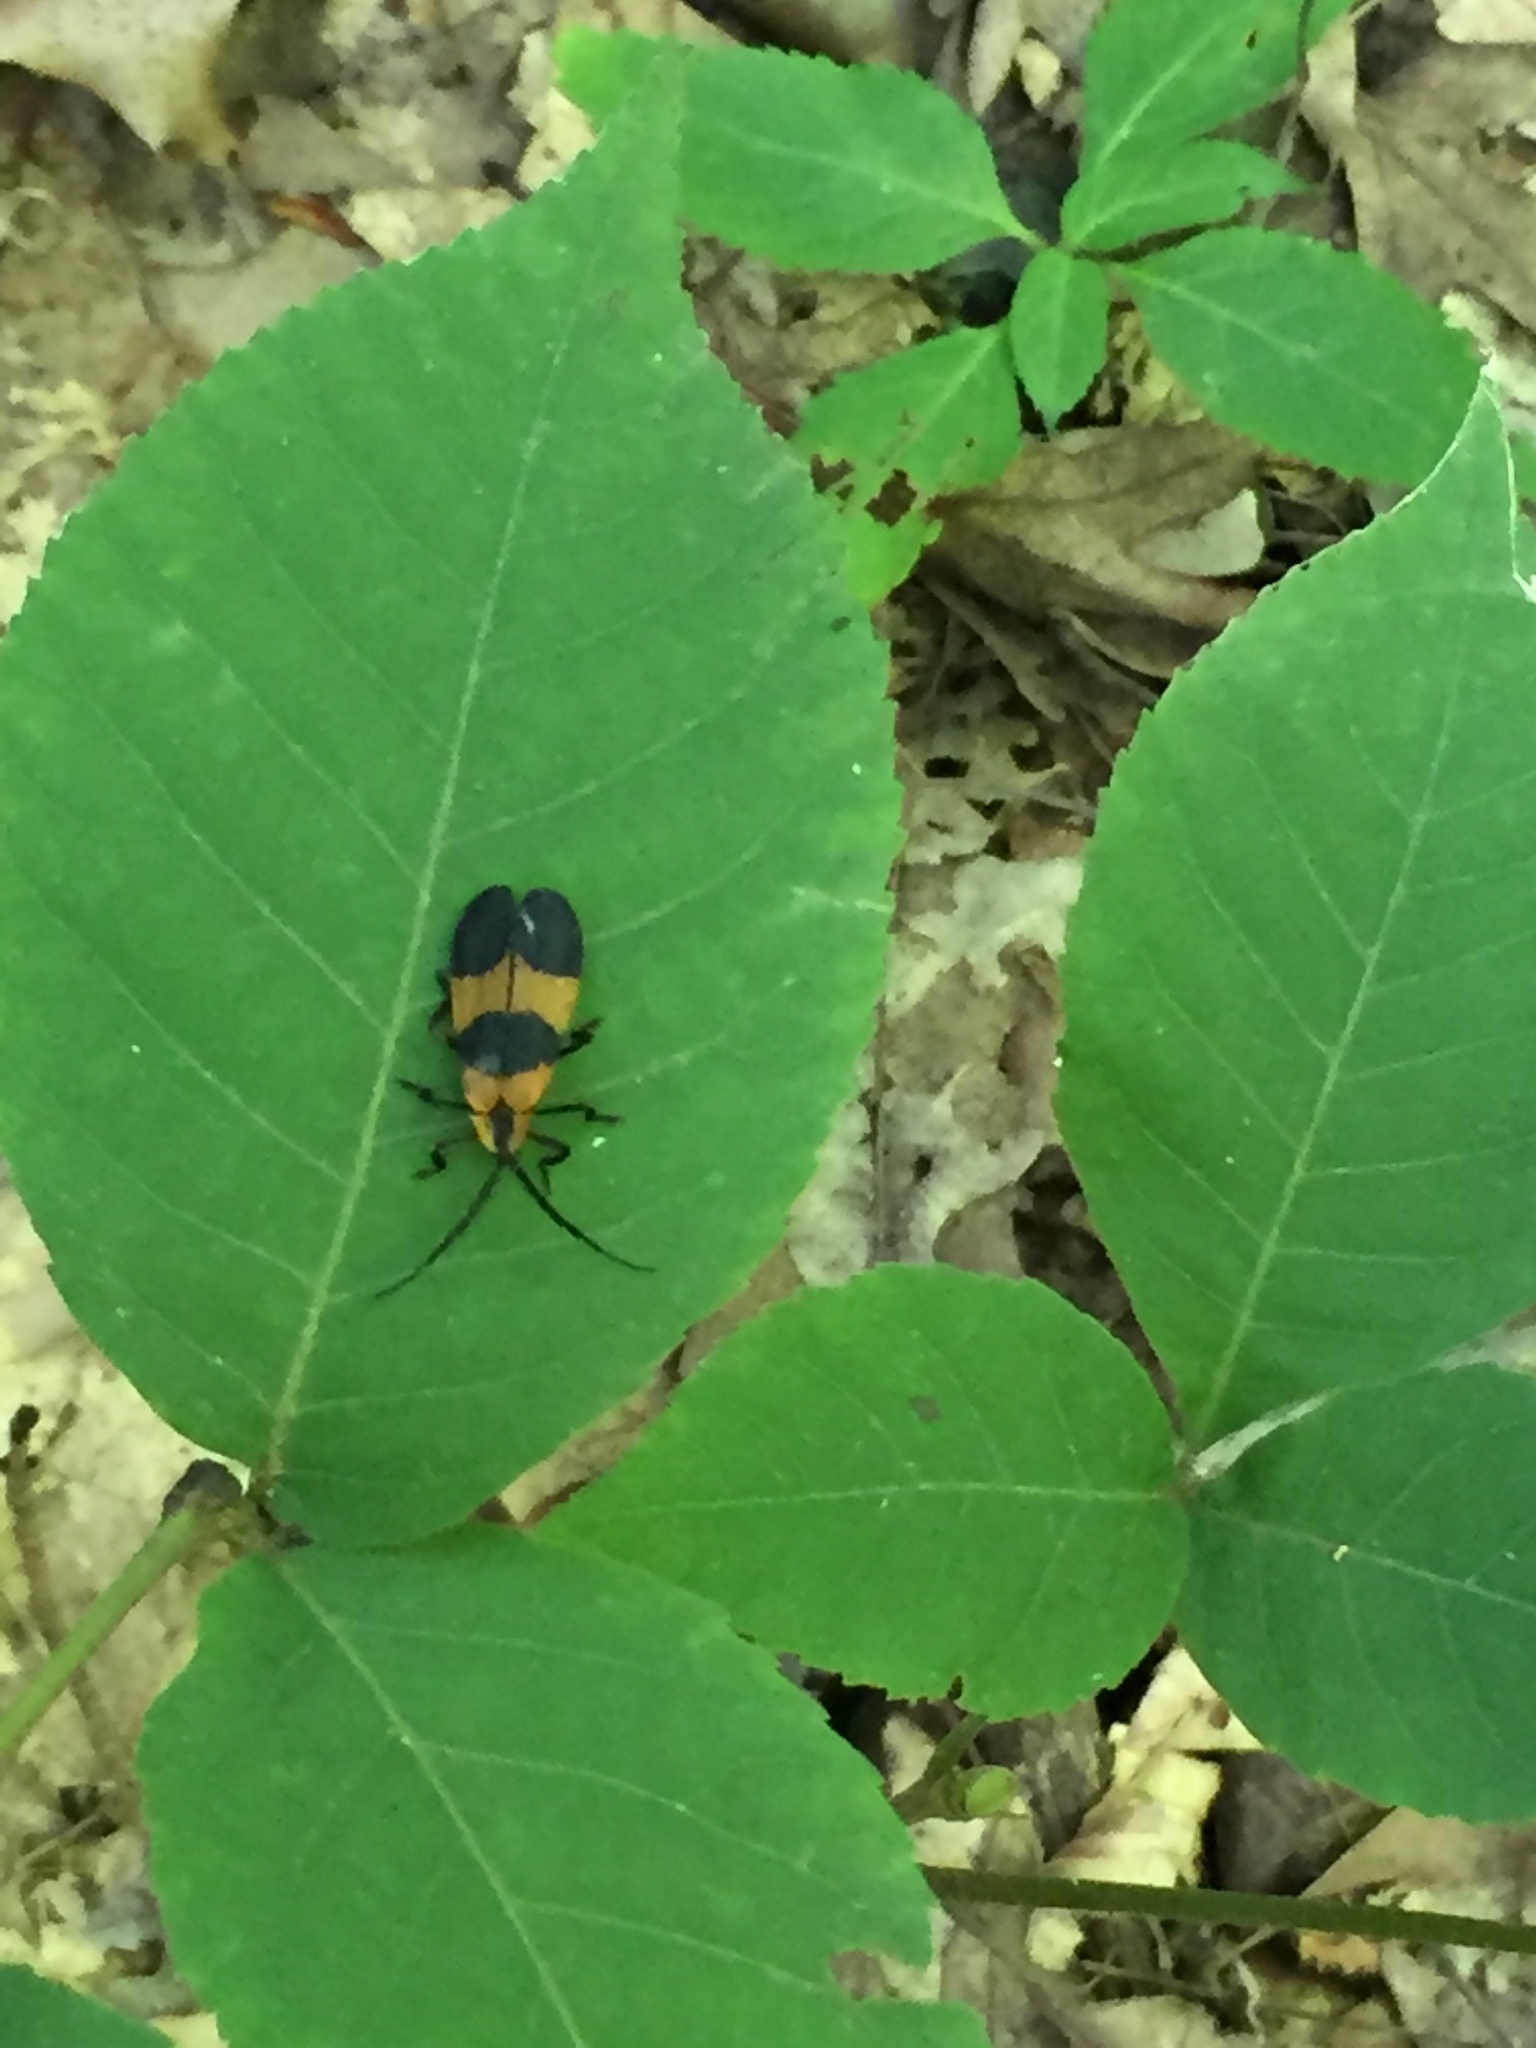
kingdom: Animalia
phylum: Arthropoda
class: Insecta
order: Coleoptera
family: Lycidae
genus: Calopteron
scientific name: Calopteron terminale
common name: End band net-winged beetle
